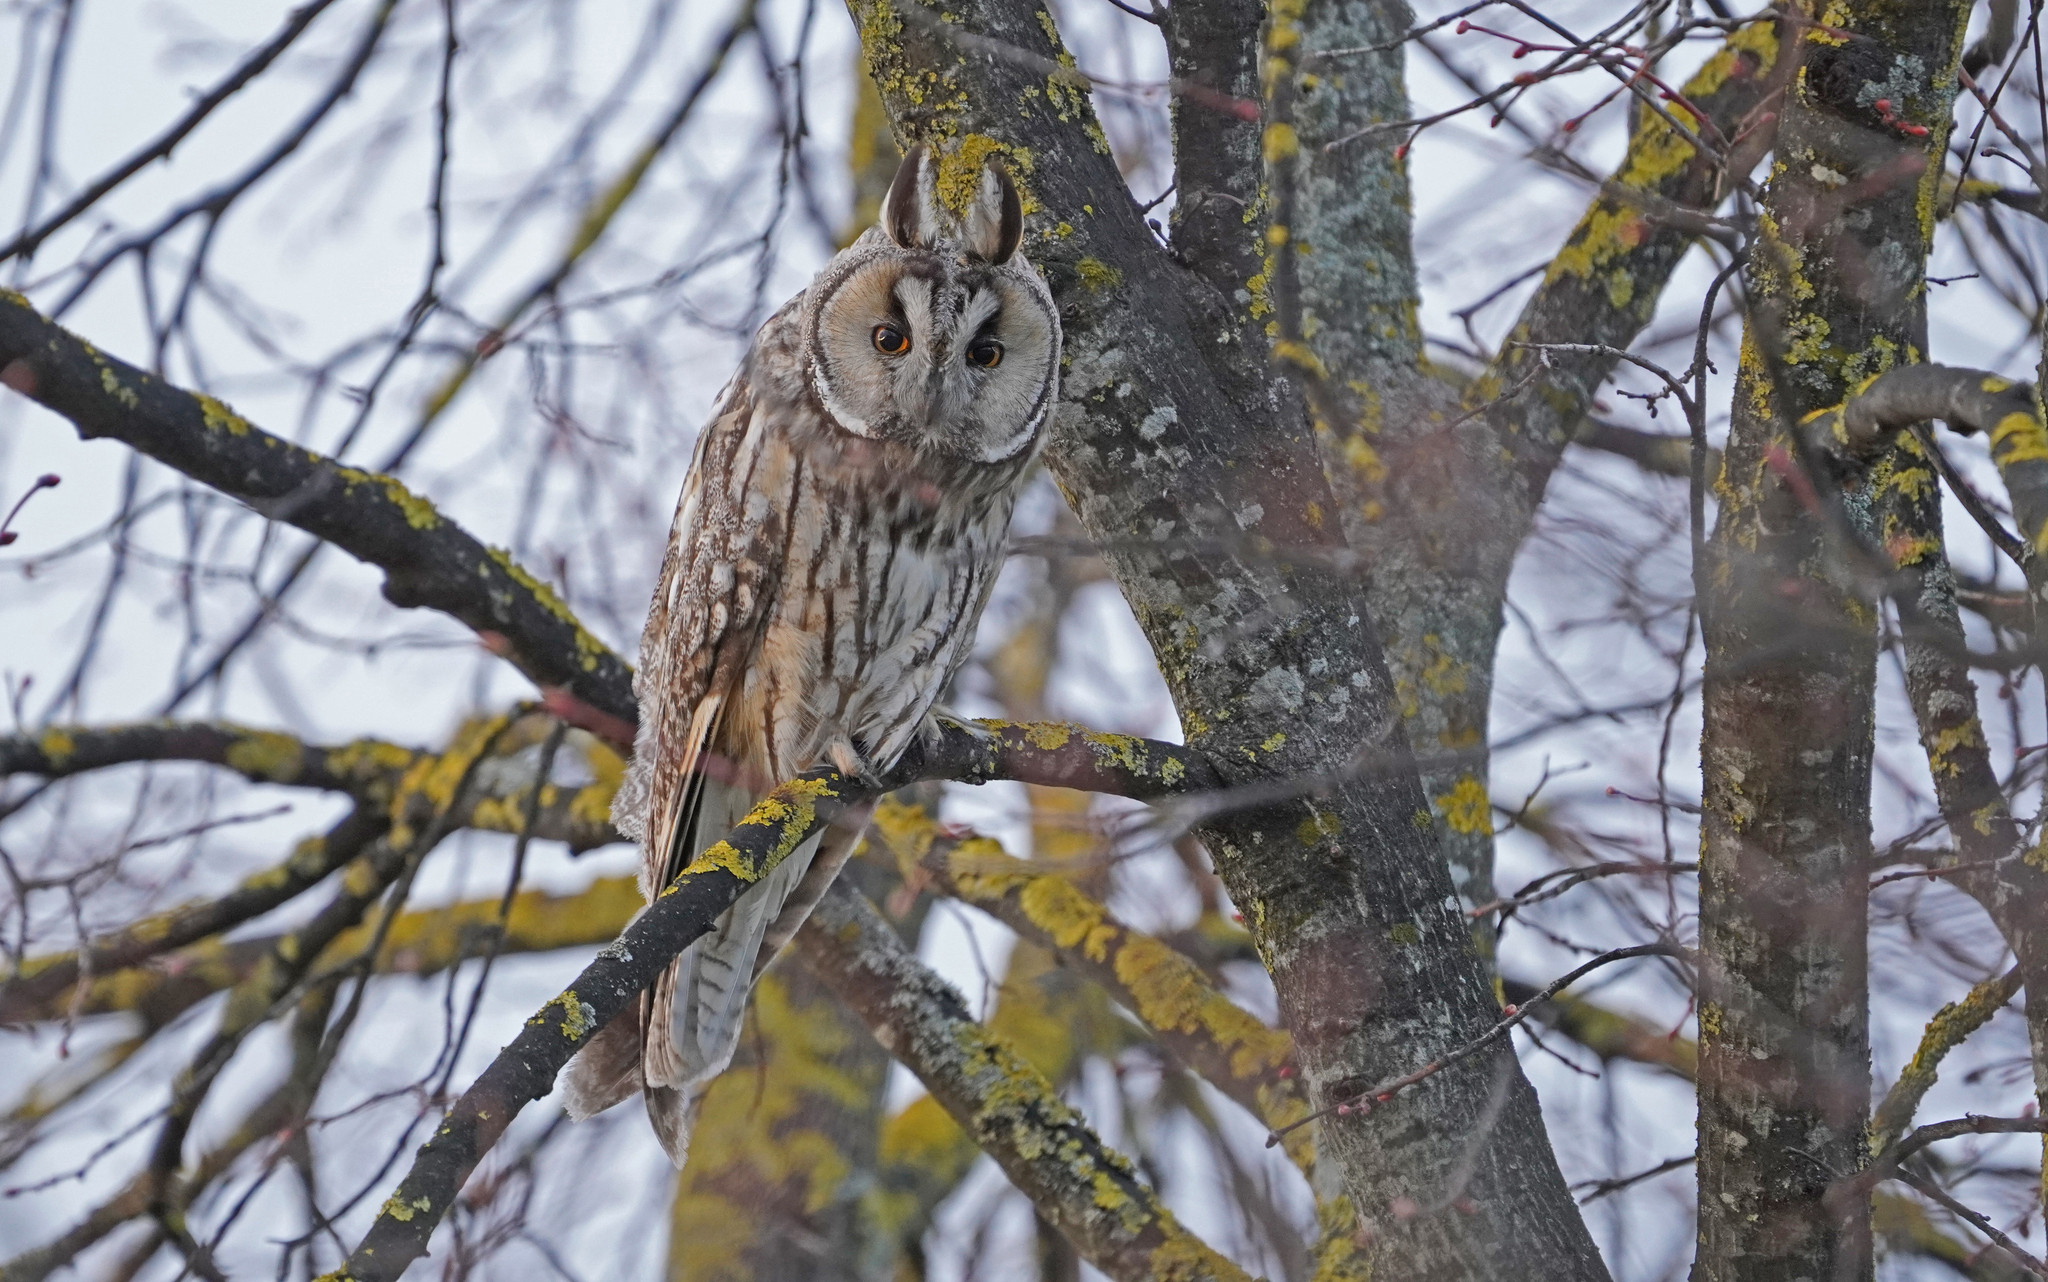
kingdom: Animalia
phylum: Chordata
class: Aves
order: Strigiformes
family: Strigidae
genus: Asio
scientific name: Asio otus
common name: Long-eared owl
